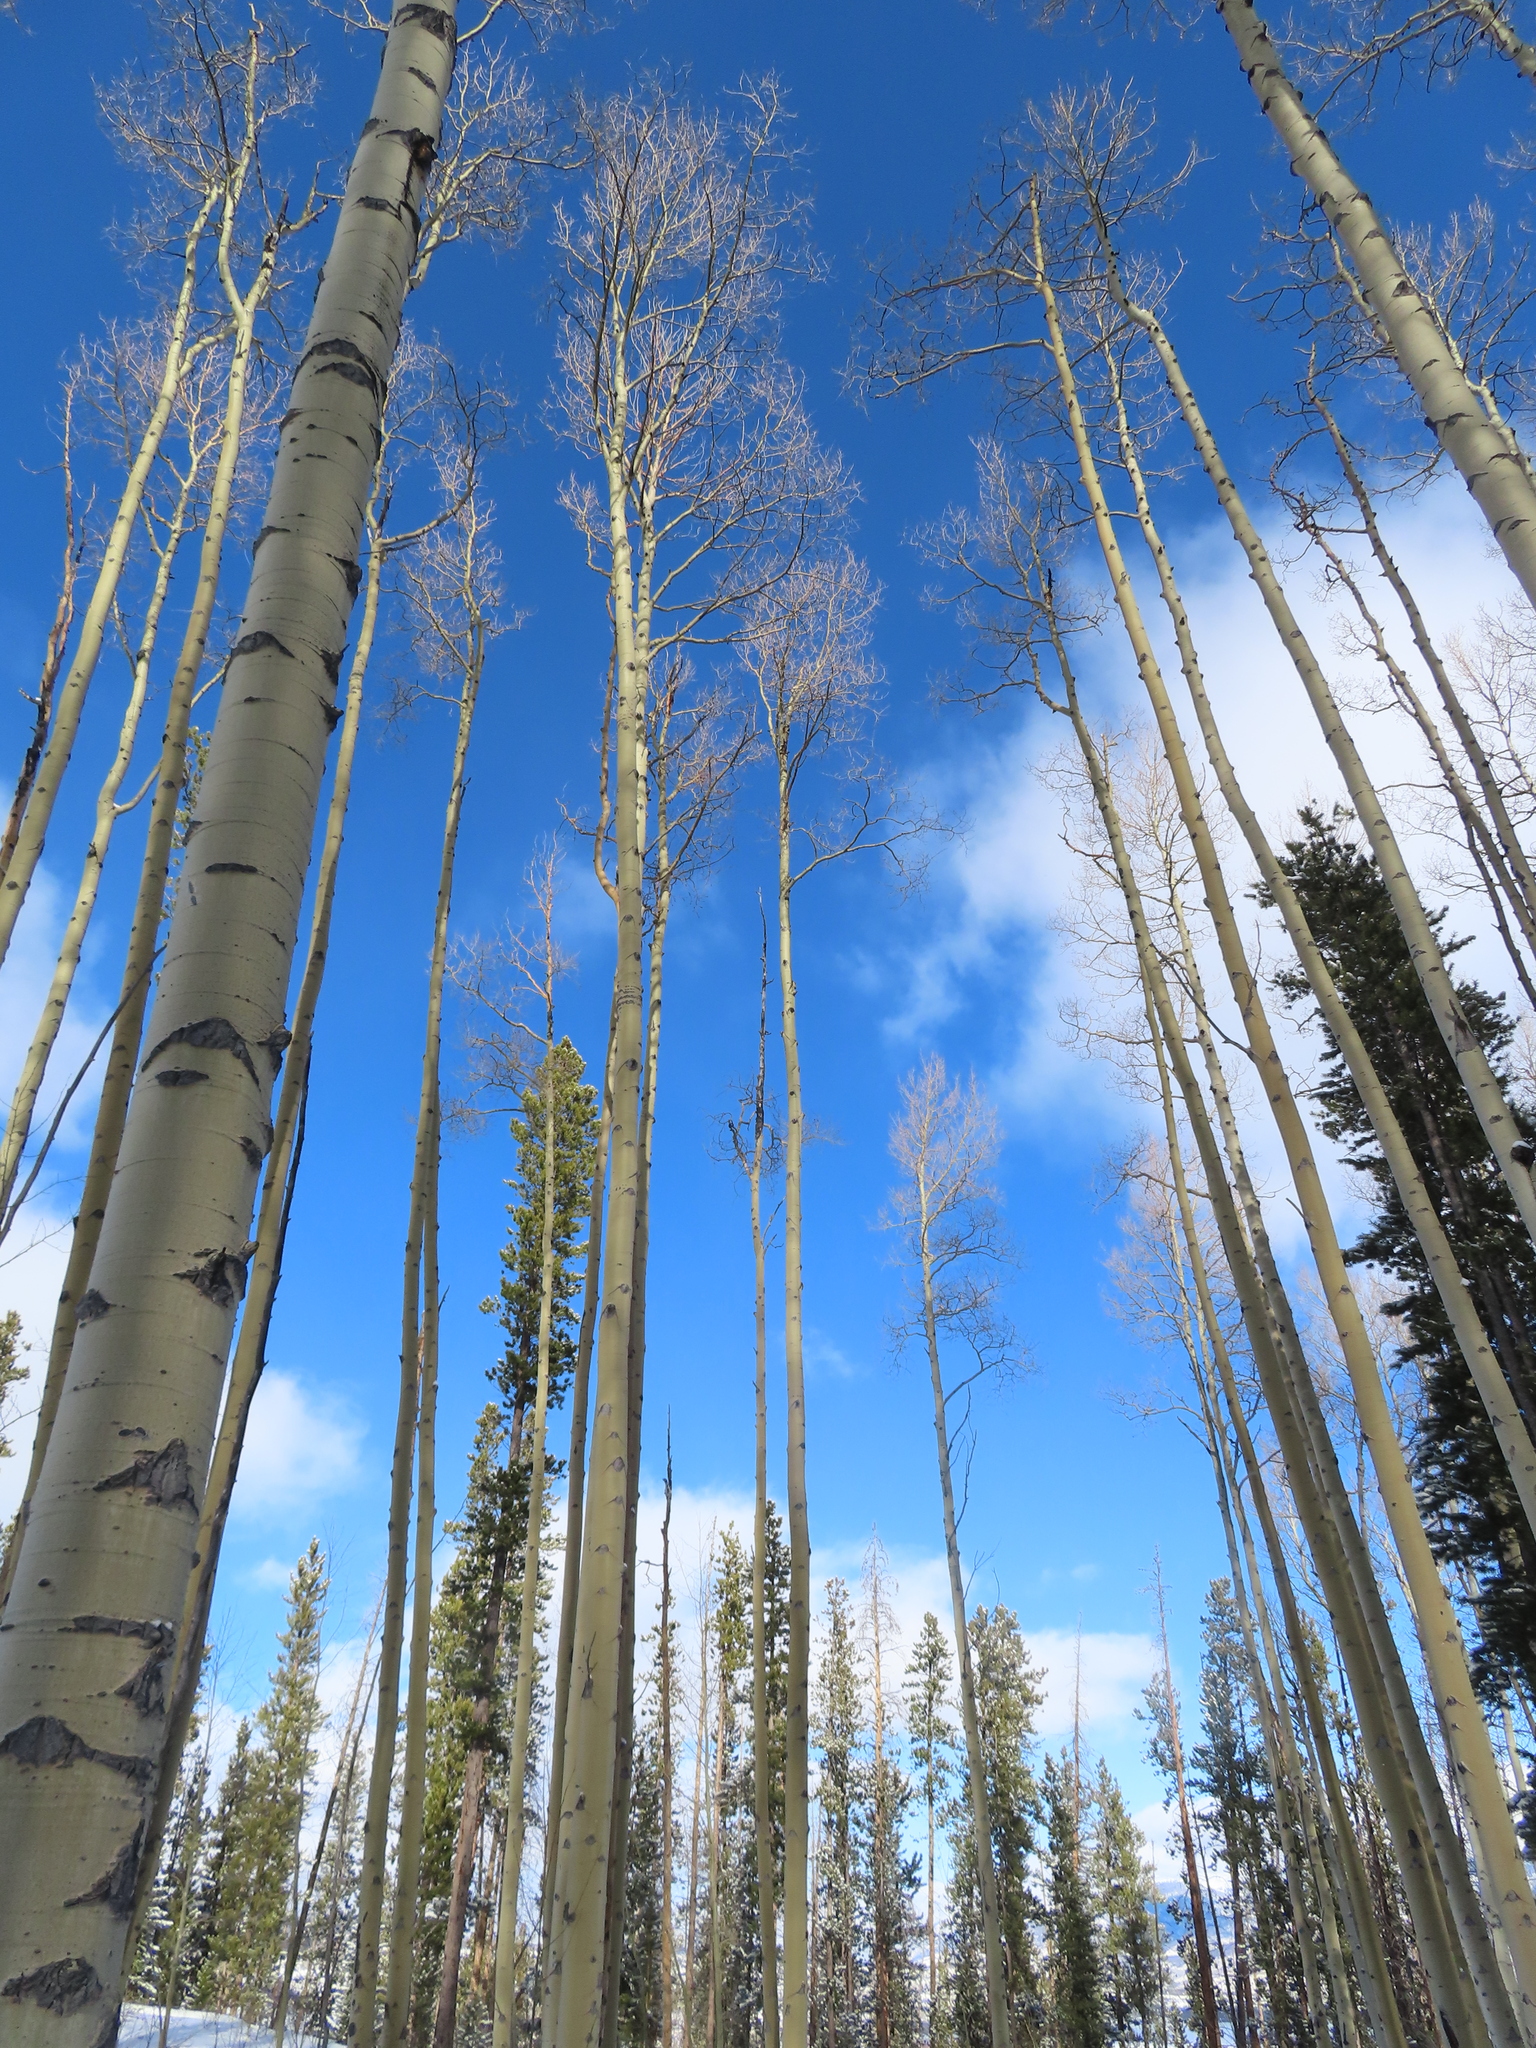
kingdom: Plantae
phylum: Tracheophyta
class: Magnoliopsida
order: Malpighiales
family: Salicaceae
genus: Populus
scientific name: Populus tremuloides
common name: Quaking aspen
